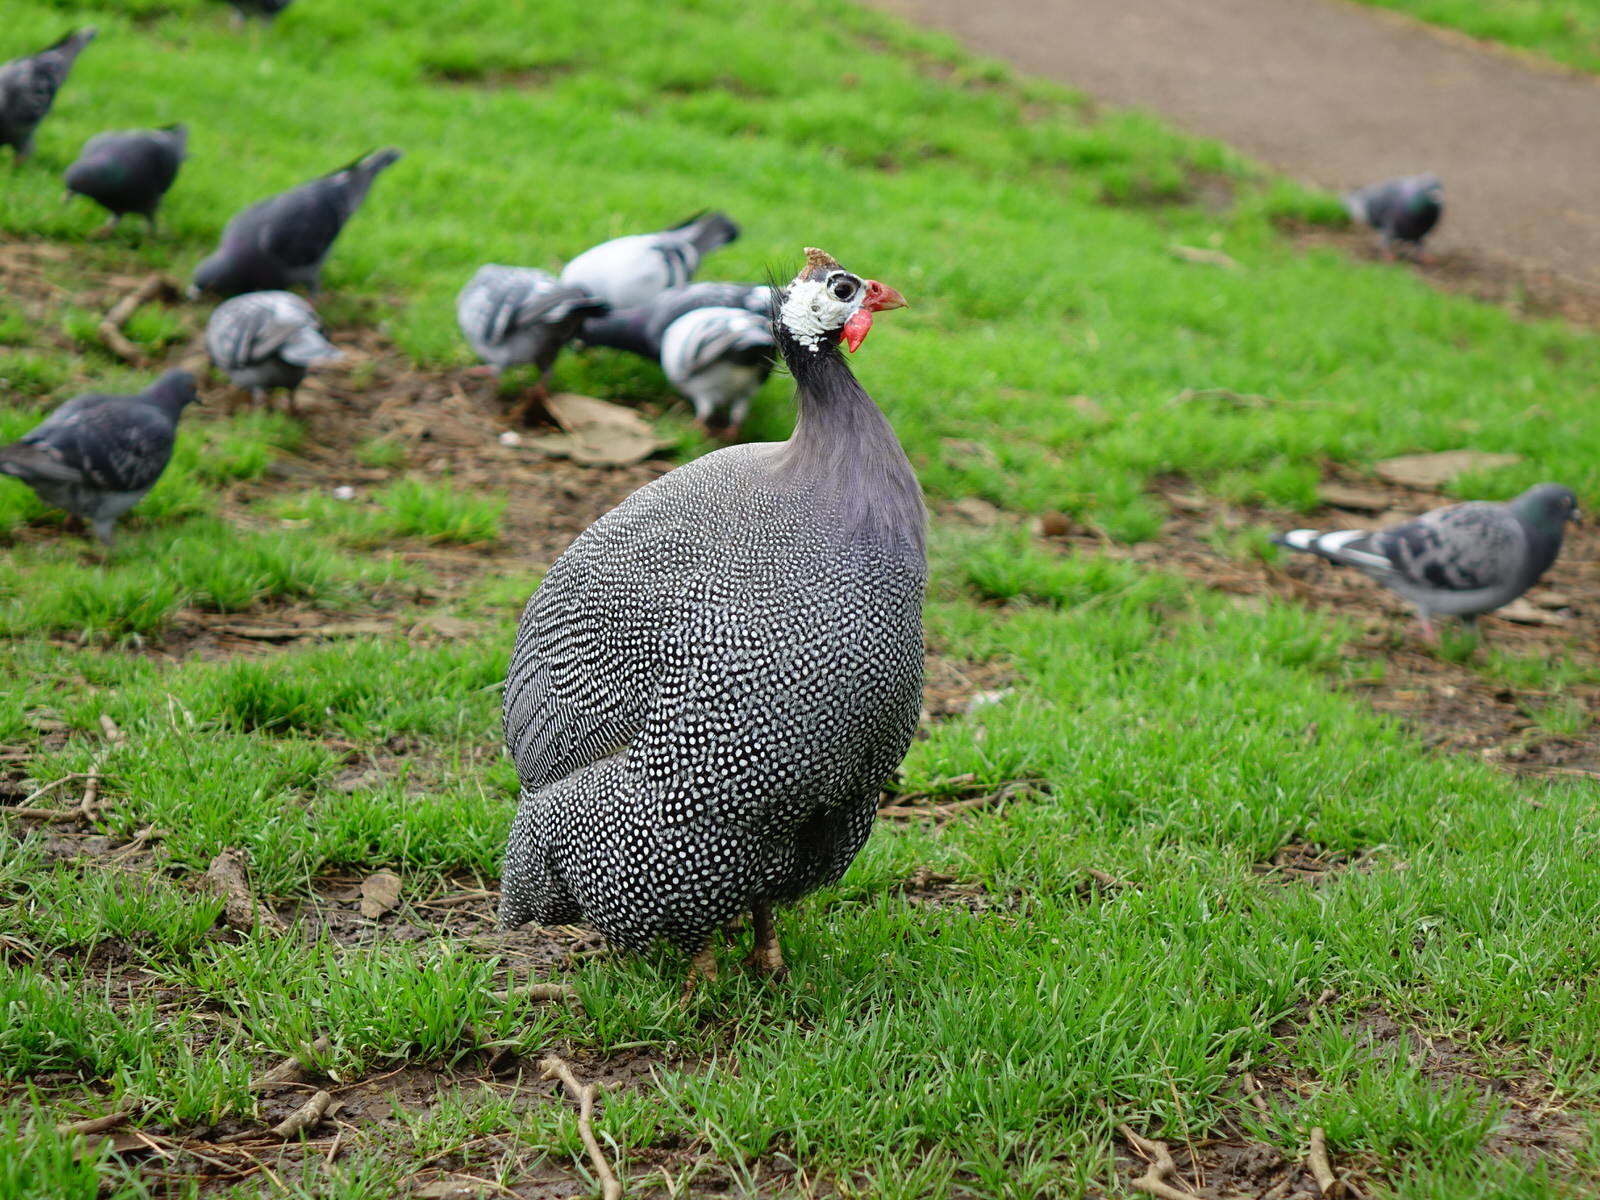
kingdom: Animalia
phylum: Chordata
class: Aves
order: Galliformes
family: Numididae
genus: Numida
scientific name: Numida meleagris
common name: Helmeted guineafowl
